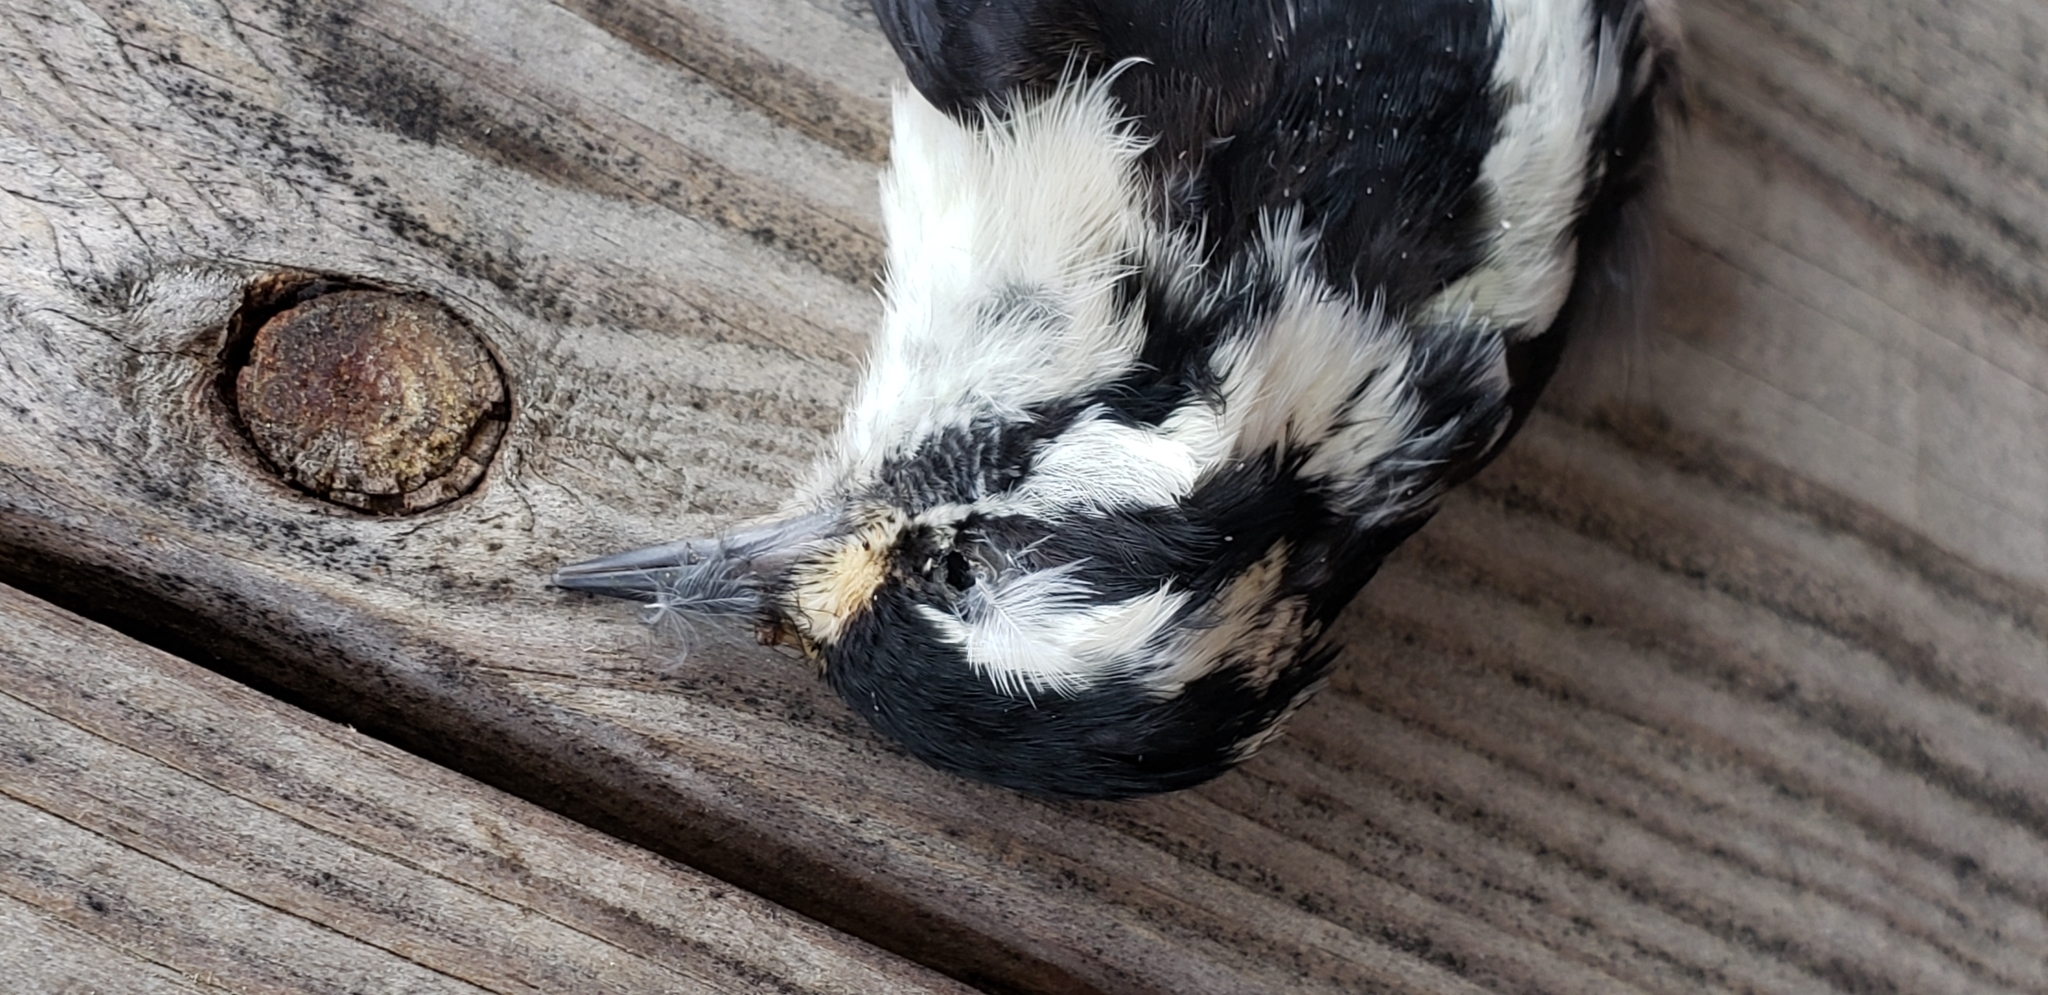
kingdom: Animalia
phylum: Chordata
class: Aves
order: Piciformes
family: Picidae
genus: Dryobates
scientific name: Dryobates pubescens
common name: Downy woodpecker
